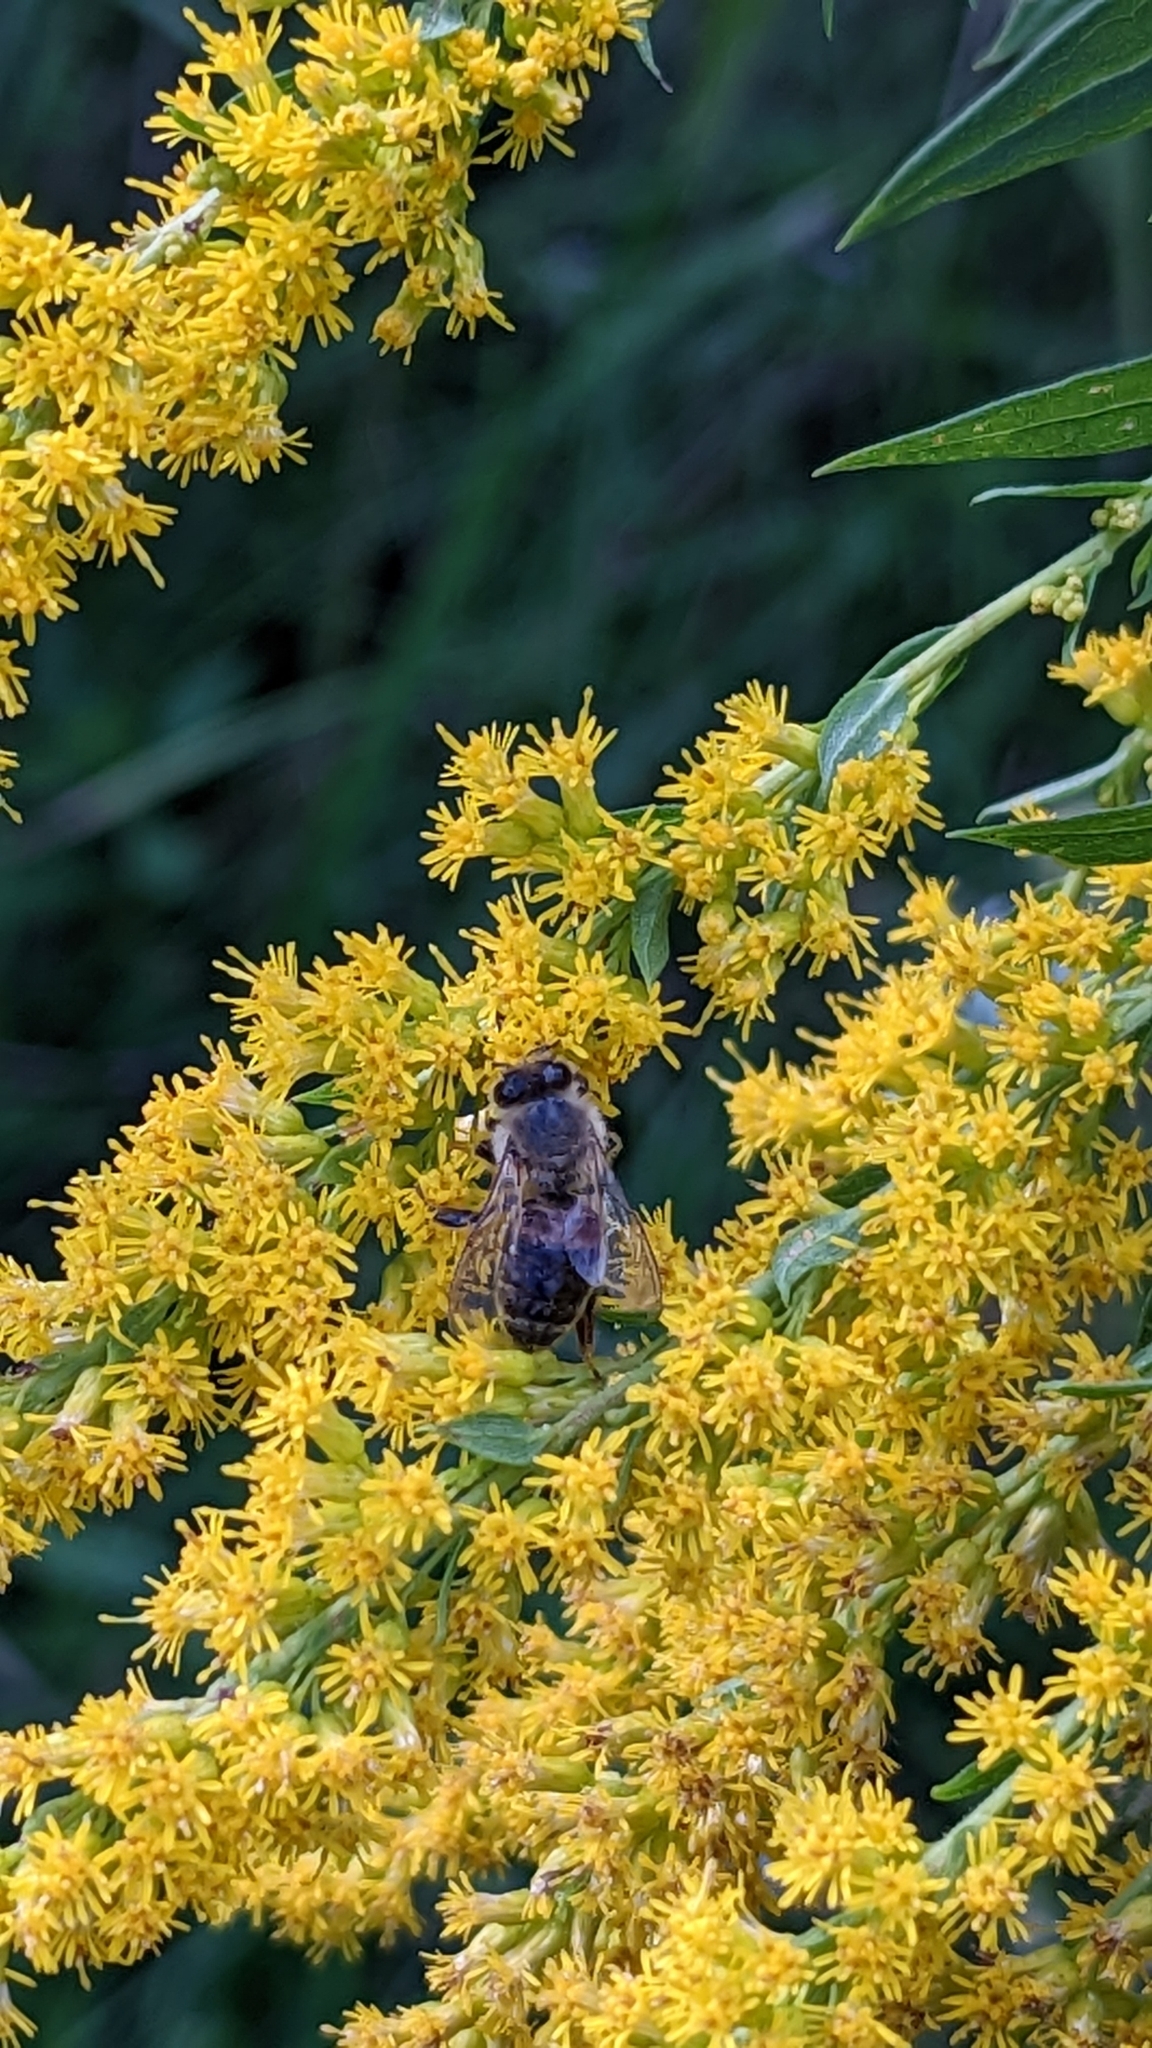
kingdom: Animalia
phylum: Arthropoda
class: Insecta
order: Hymenoptera
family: Apidae
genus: Apis
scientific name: Apis mellifera
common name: Honey bee
